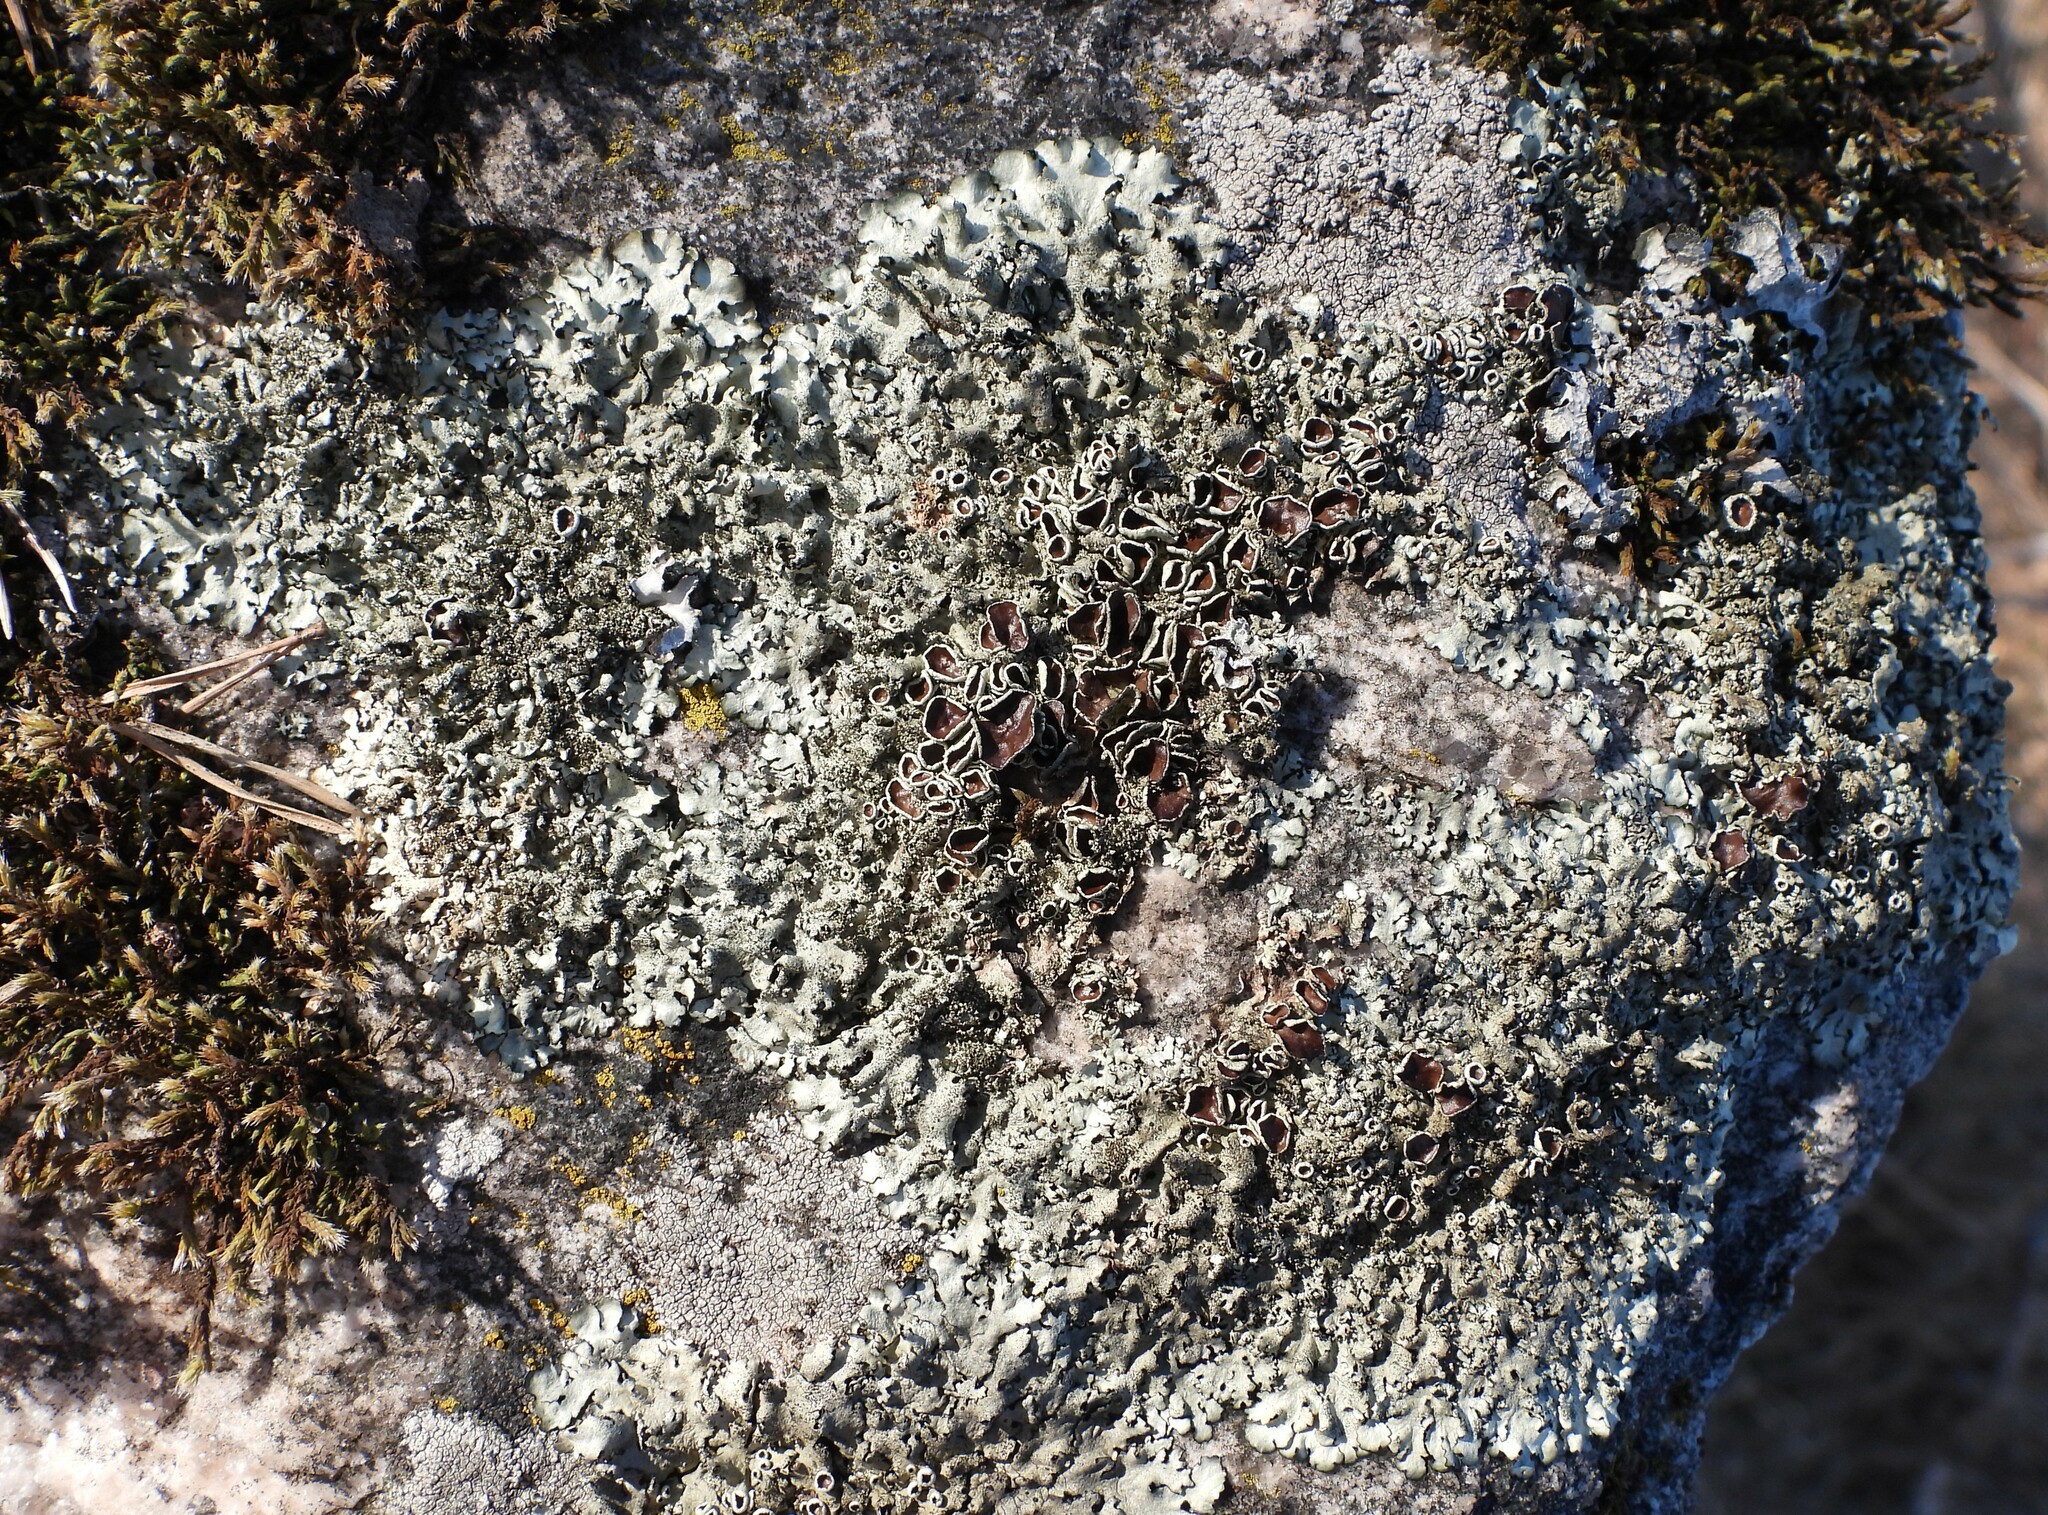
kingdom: Fungi
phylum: Ascomycota
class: Lecanoromycetes
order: Lecanorales
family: Parmeliaceae
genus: Xanthoparmelia
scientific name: Xanthoparmelia conspersa
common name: Peppered rock shield
